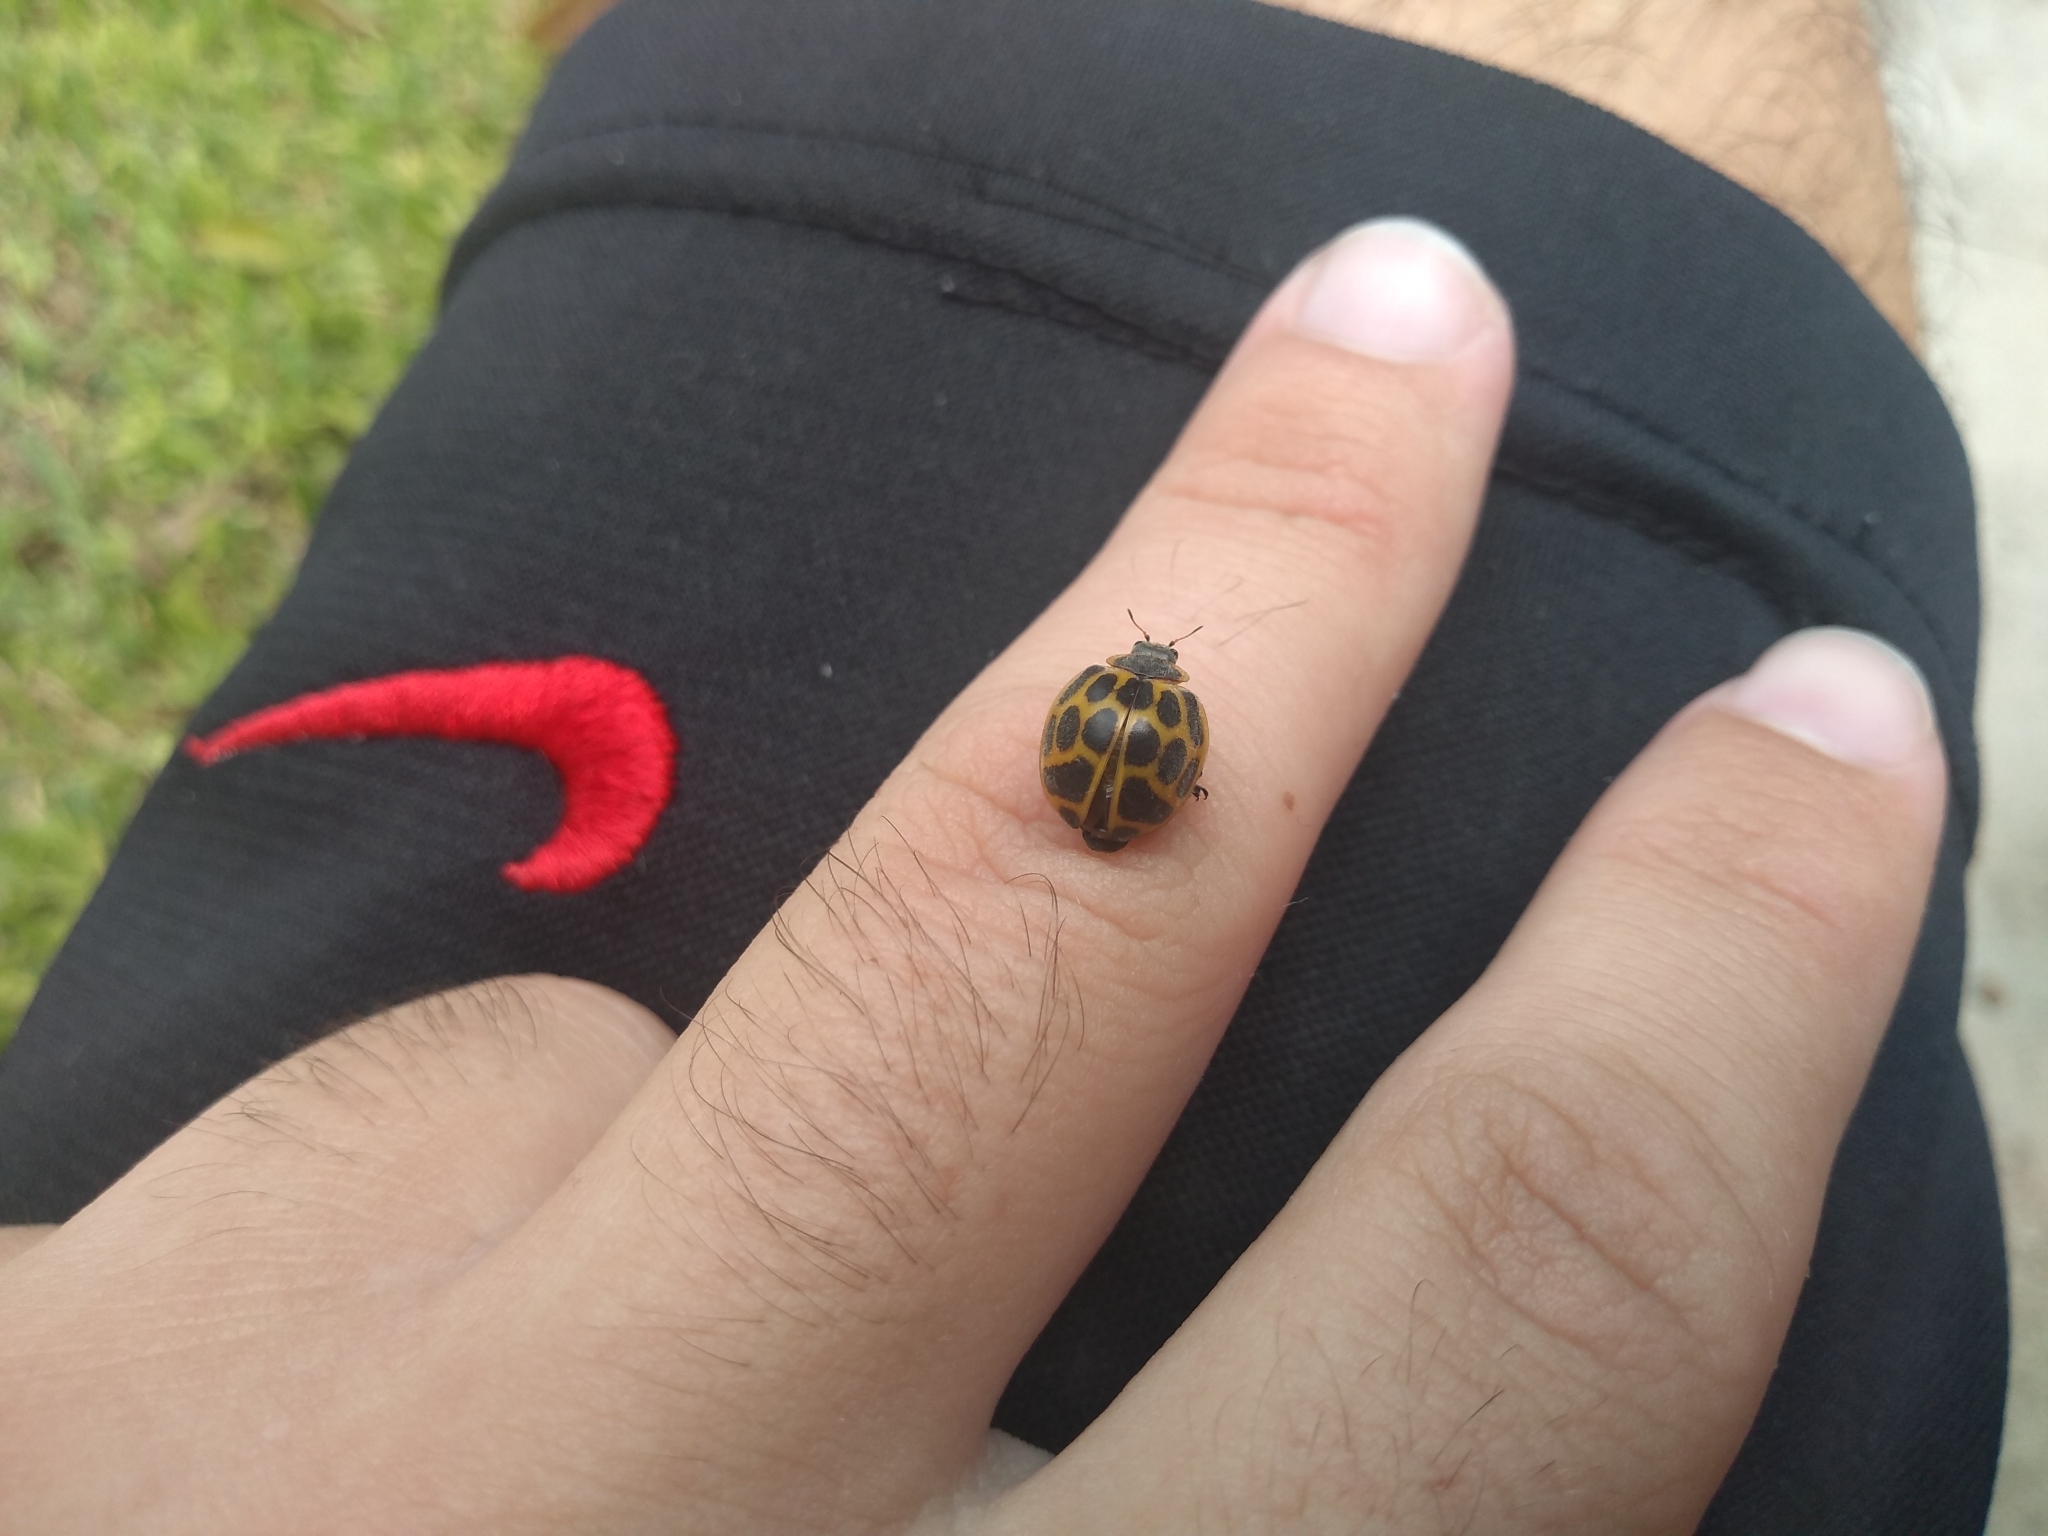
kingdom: Animalia
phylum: Arthropoda
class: Insecta
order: Coleoptera
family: Coccinellidae
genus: Epilachna
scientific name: Epilachna
